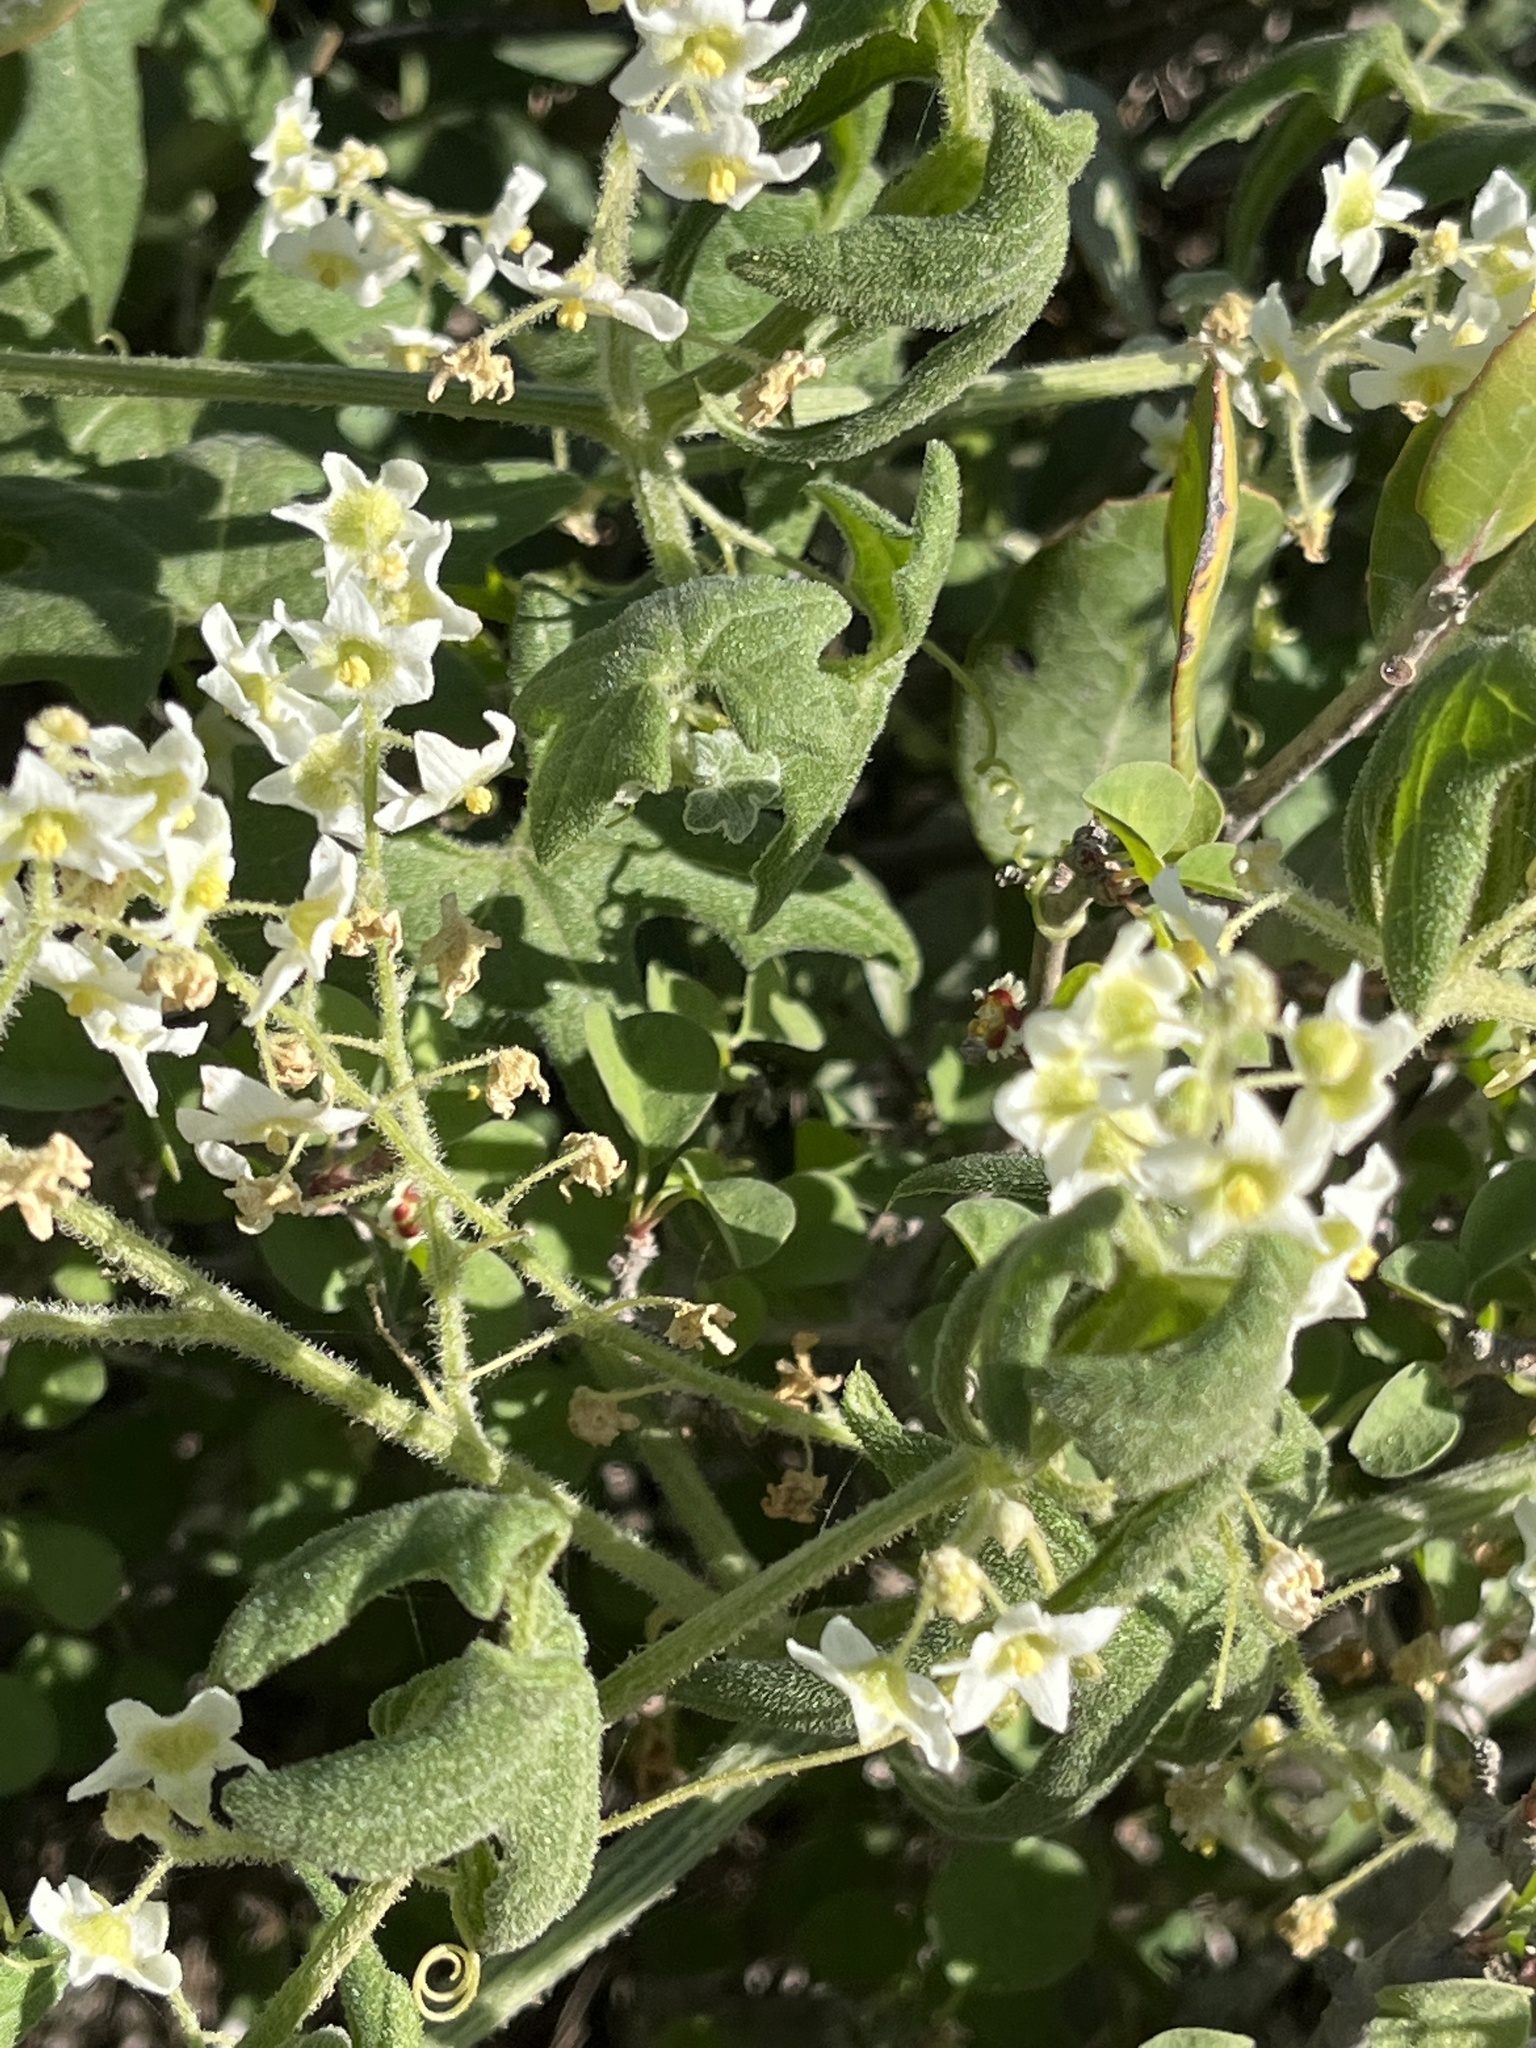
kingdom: Plantae
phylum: Tracheophyta
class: Magnoliopsida
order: Cucurbitales
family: Cucurbitaceae
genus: Marah
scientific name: Marah macrocarpa
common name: Cucamonga manroot
